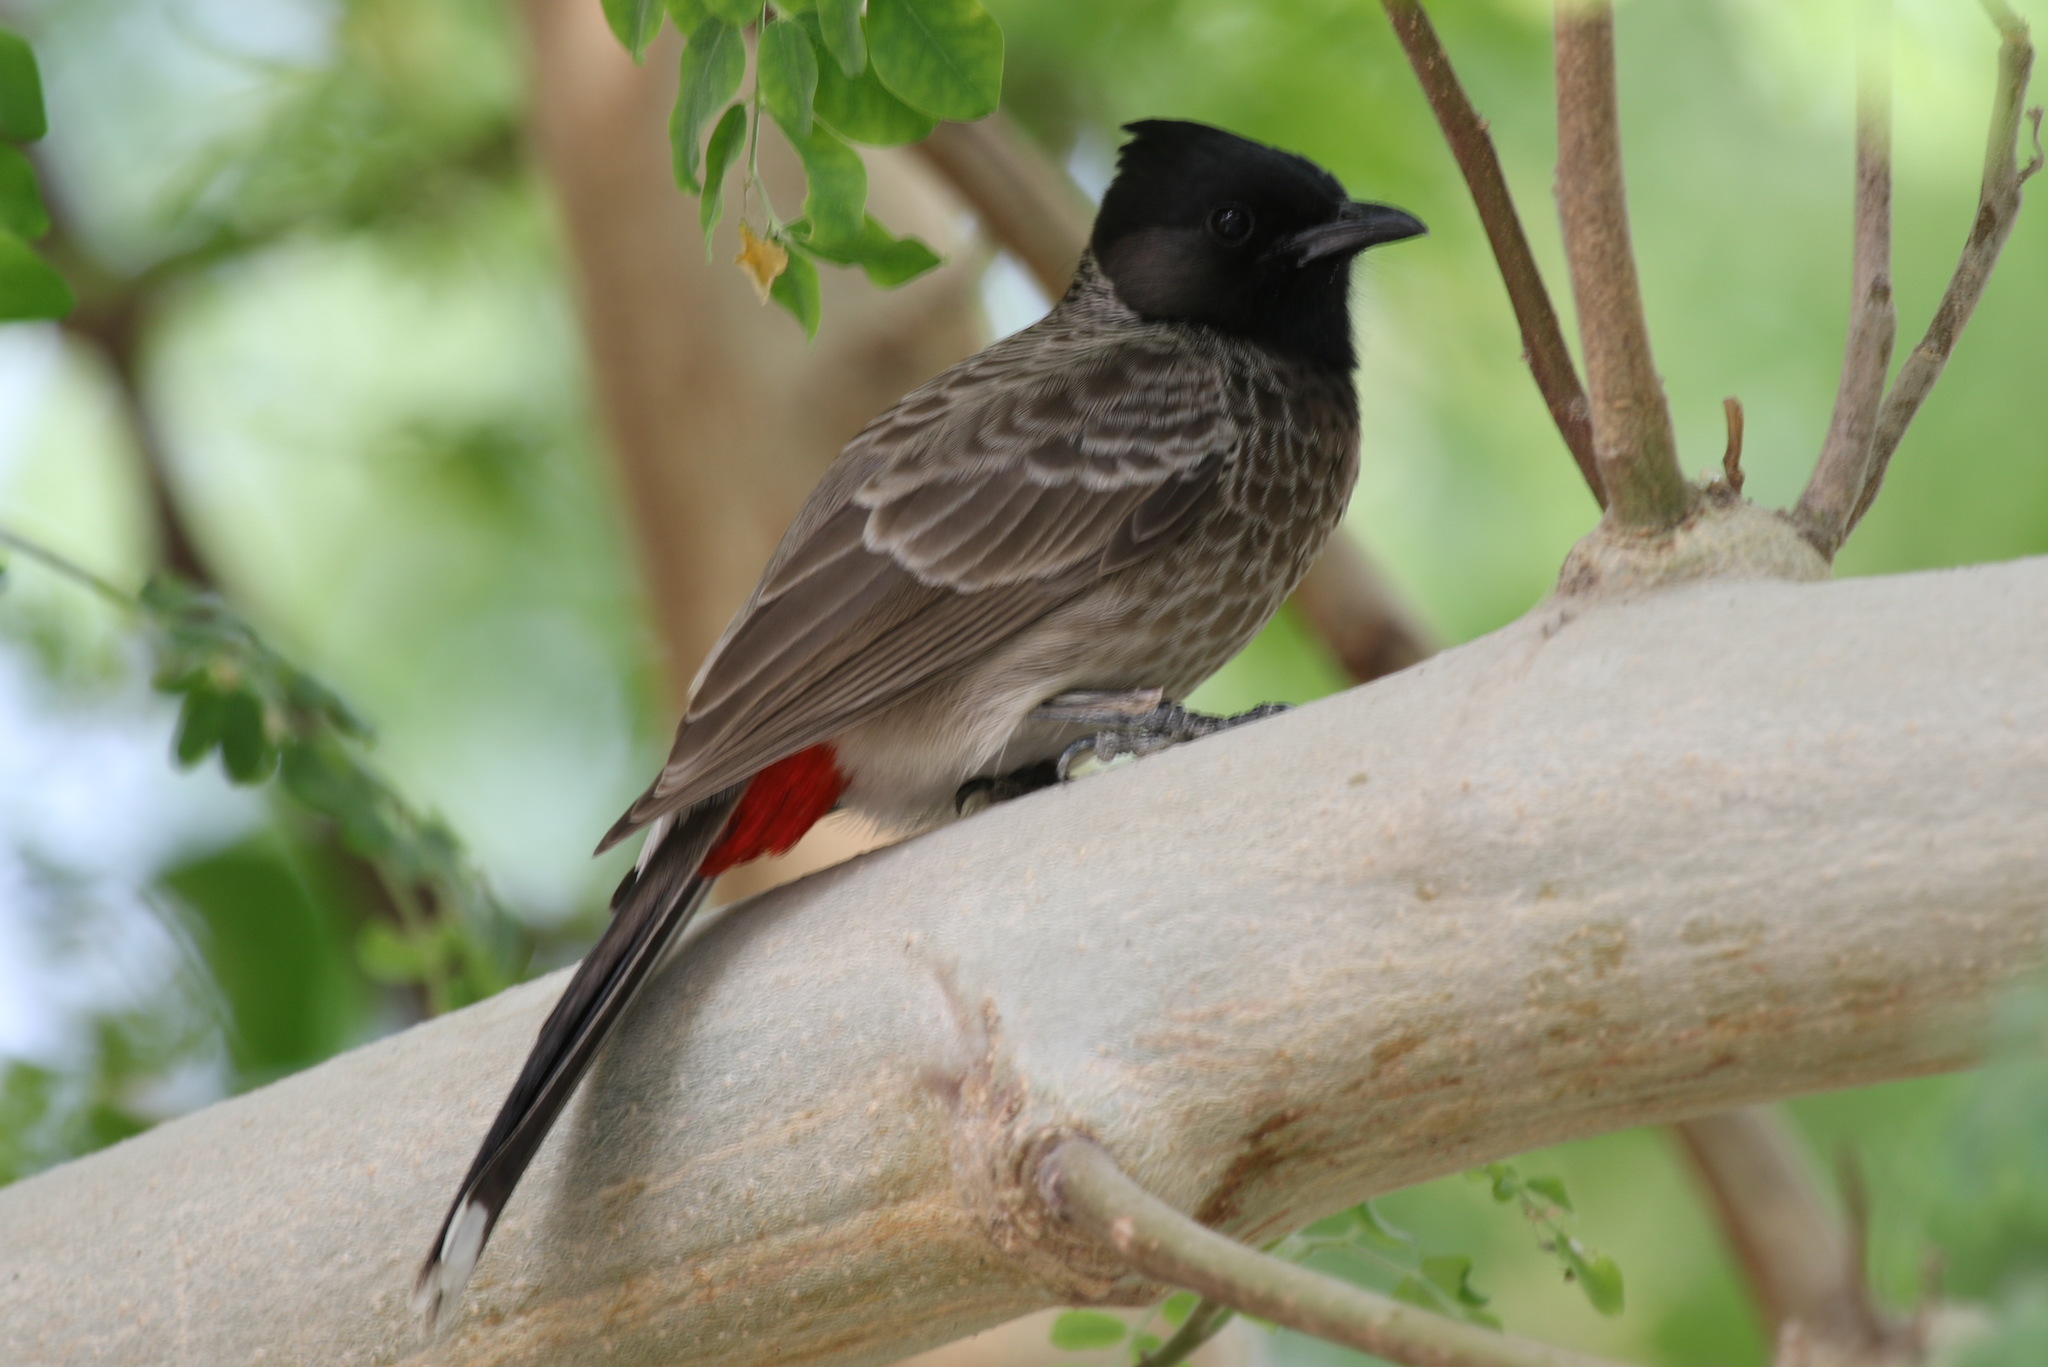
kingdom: Animalia
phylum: Chordata
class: Aves
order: Passeriformes
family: Pycnonotidae
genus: Pycnonotus
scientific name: Pycnonotus cafer
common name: Red-vented bulbul
